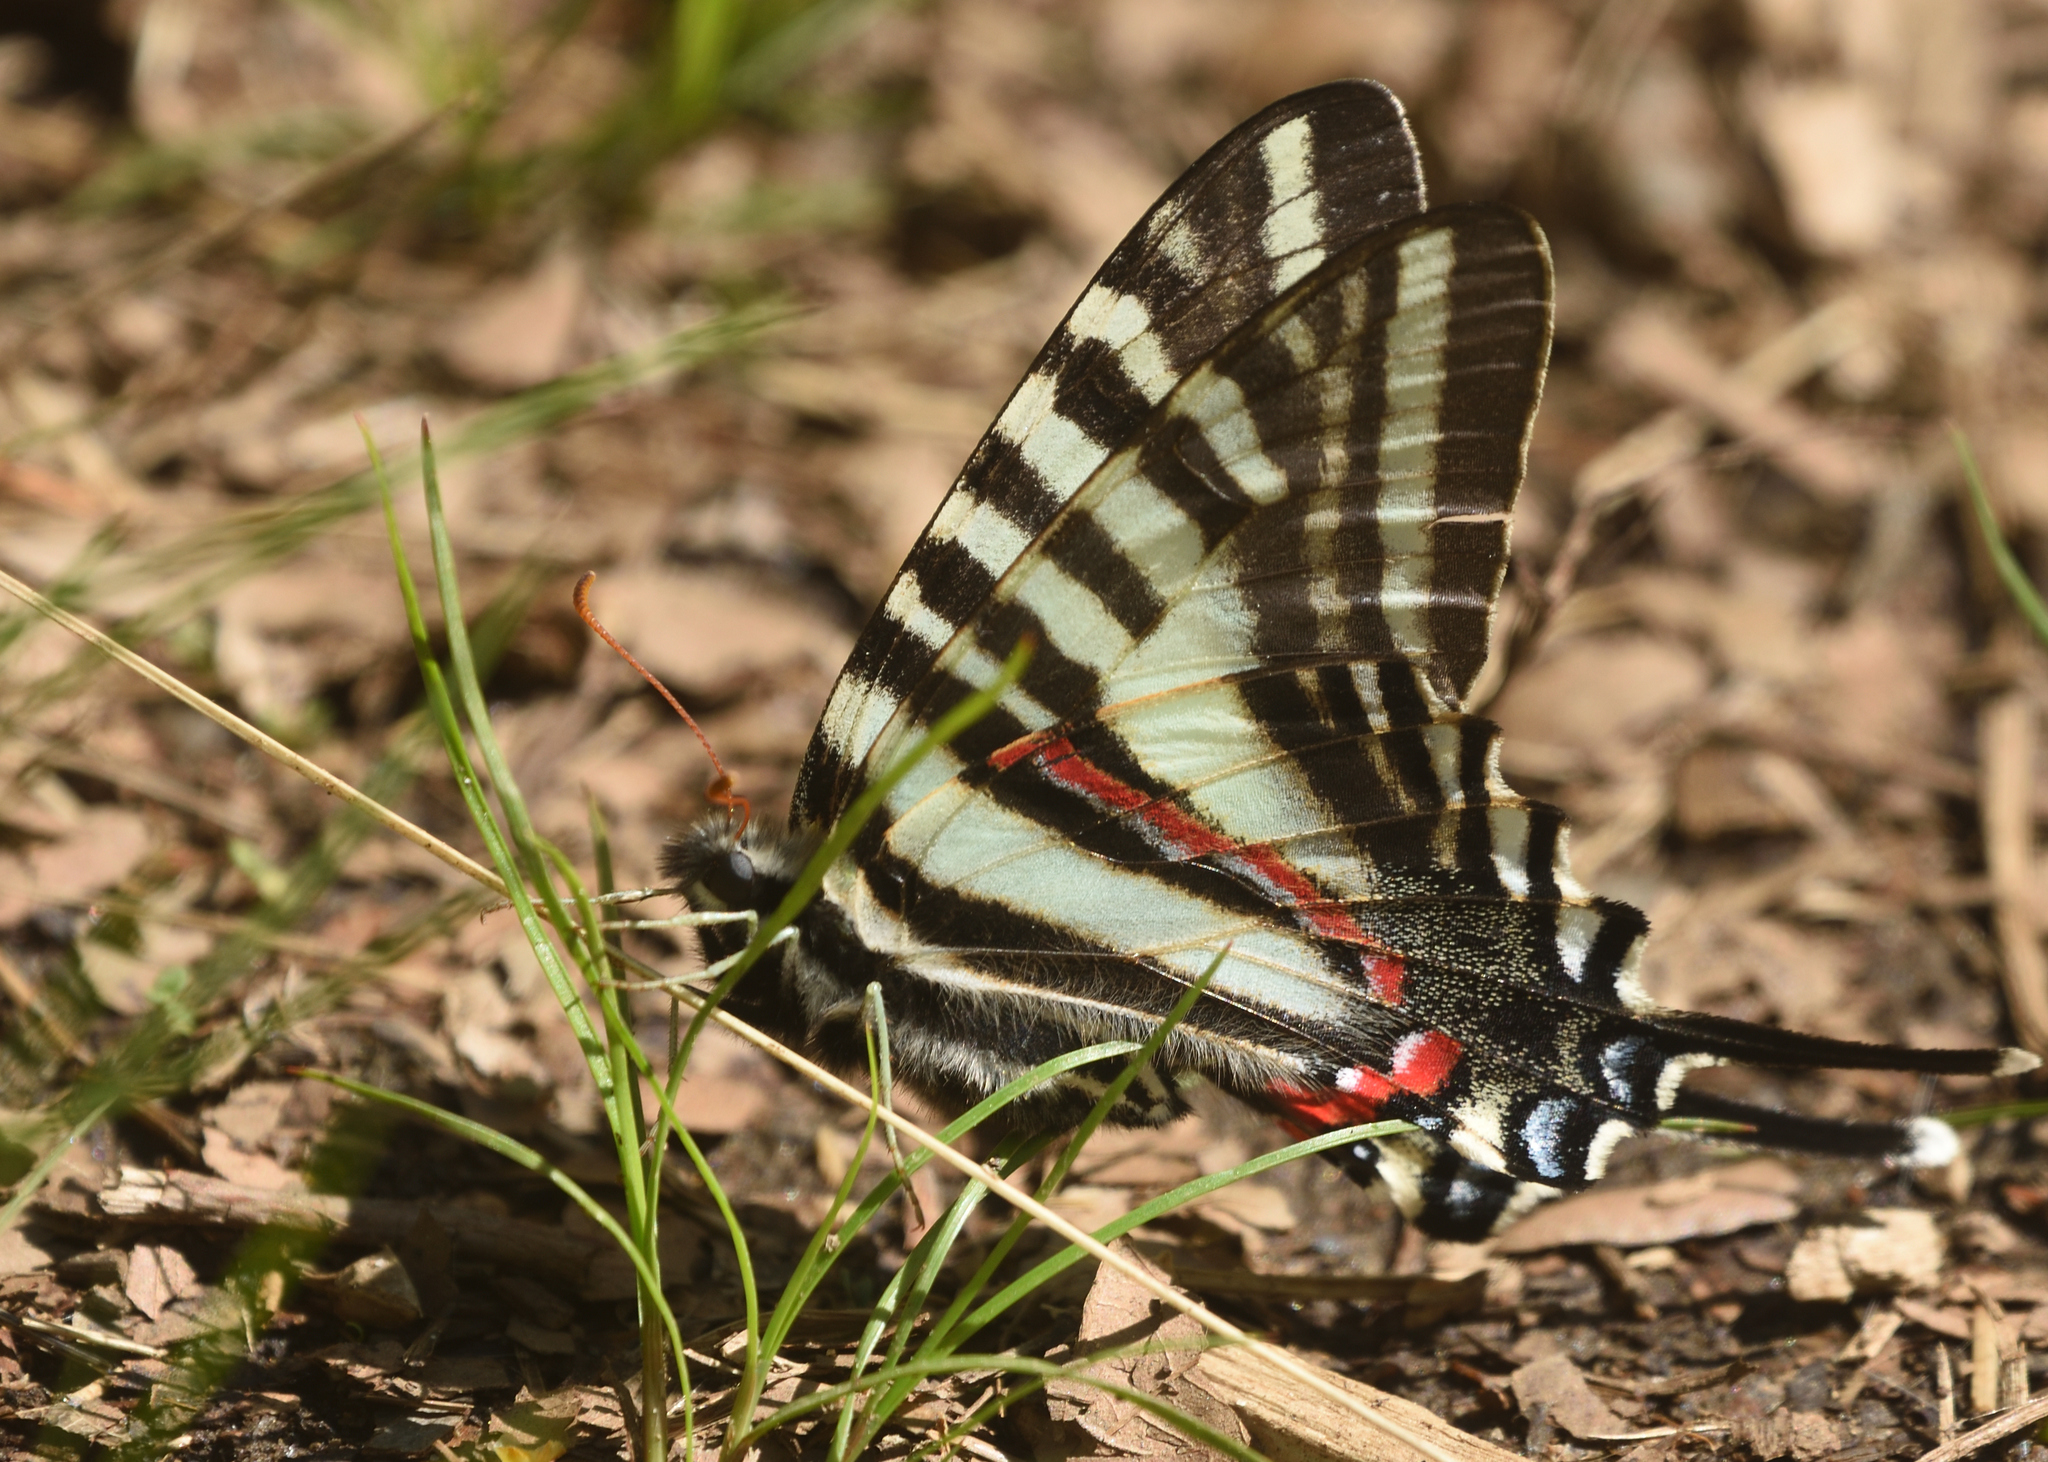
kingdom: Animalia
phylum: Arthropoda
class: Insecta
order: Lepidoptera
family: Papilionidae
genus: Protographium
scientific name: Protographium marcellus
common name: Zebra swallowtail
